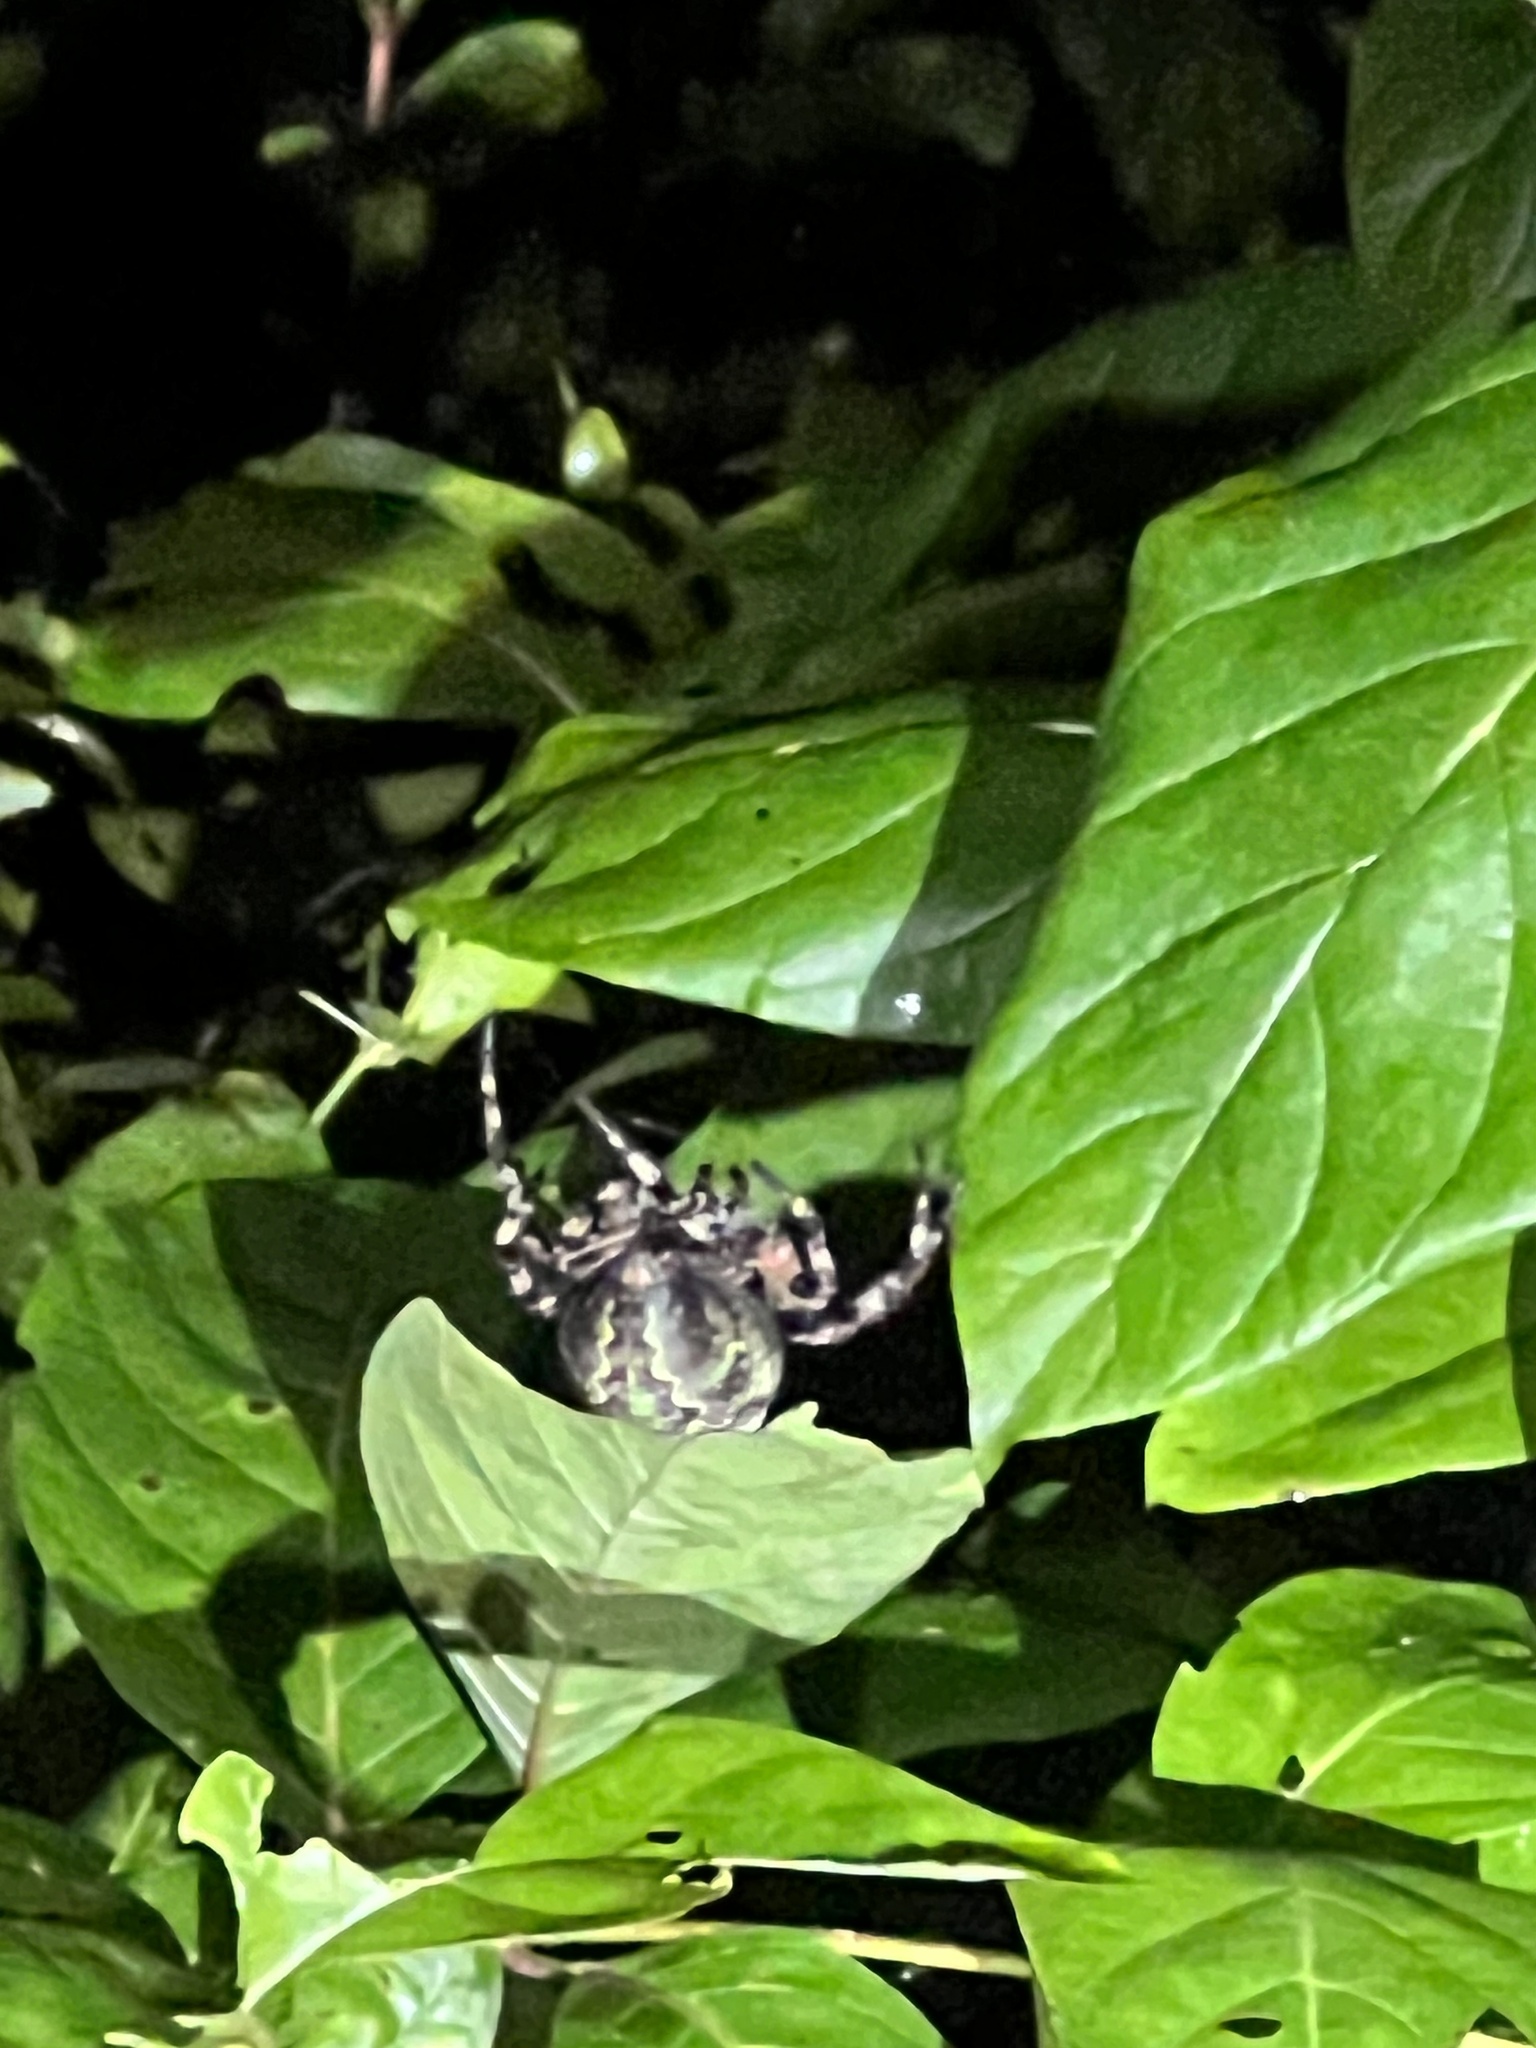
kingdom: Animalia
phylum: Arthropoda
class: Arachnida
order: Araneae
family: Araneidae
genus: Araneus
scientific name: Araneus bicentenarius
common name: Giant lichen orbweaver
